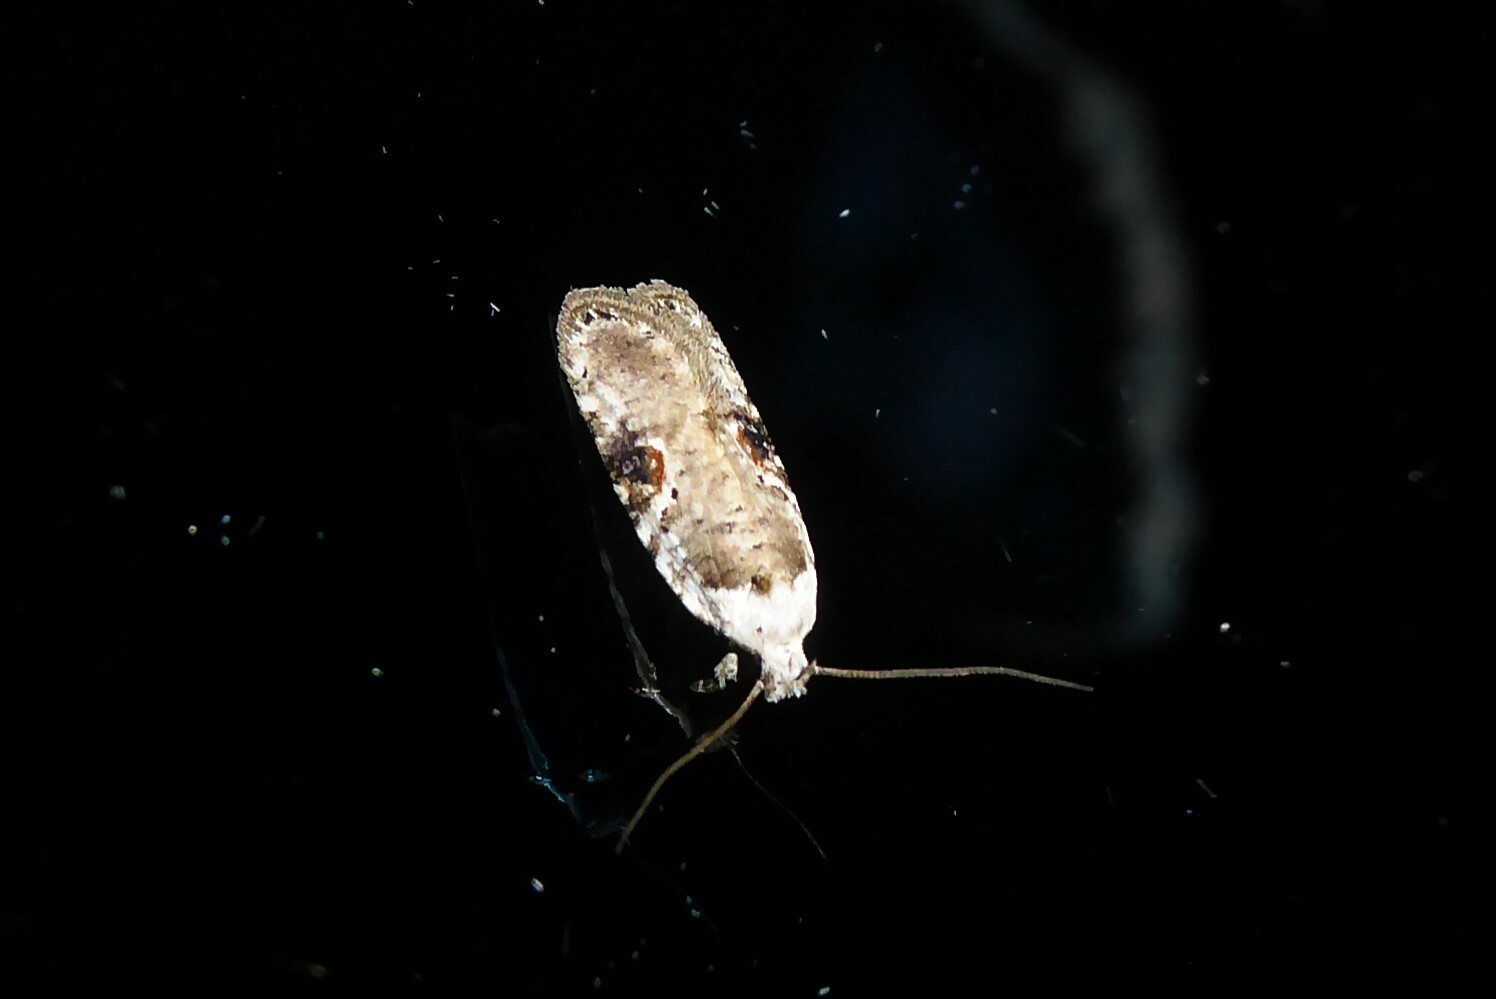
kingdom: Animalia
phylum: Arthropoda
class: Insecta
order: Lepidoptera
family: Depressariidae
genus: Agonopterix
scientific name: Agonopterix alstroemeriana
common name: Moth
